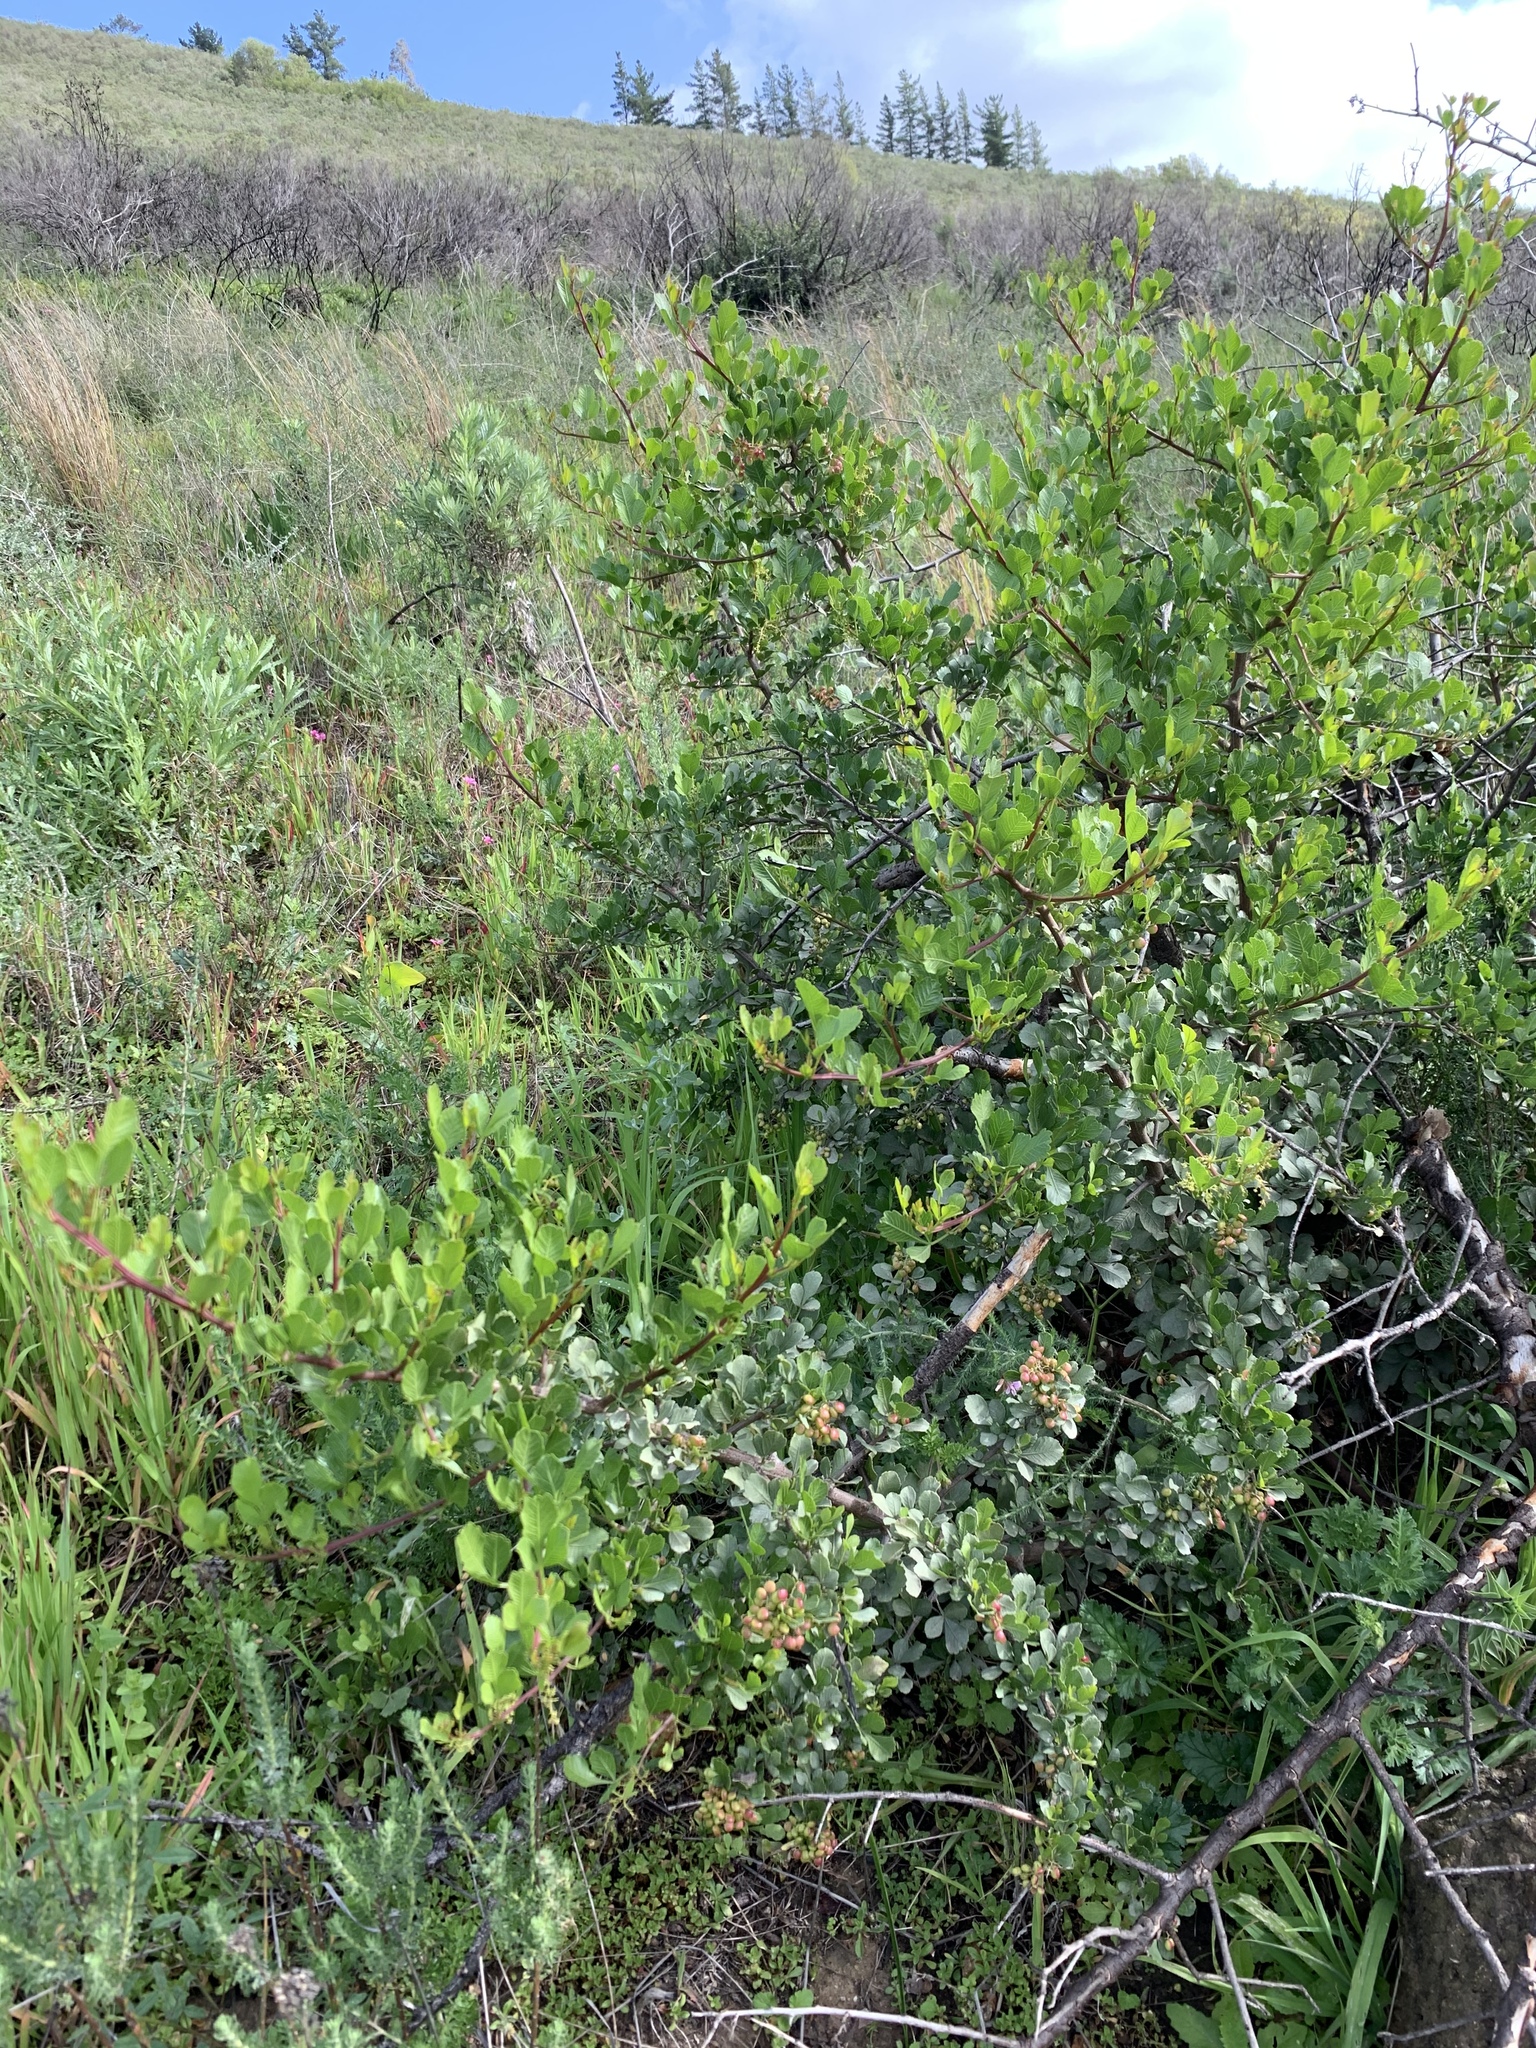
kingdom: Plantae
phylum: Tracheophyta
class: Magnoliopsida
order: Sapindales
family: Anacardiaceae
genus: Searsia
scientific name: Searsia undulata
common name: Namaqua kunibush
